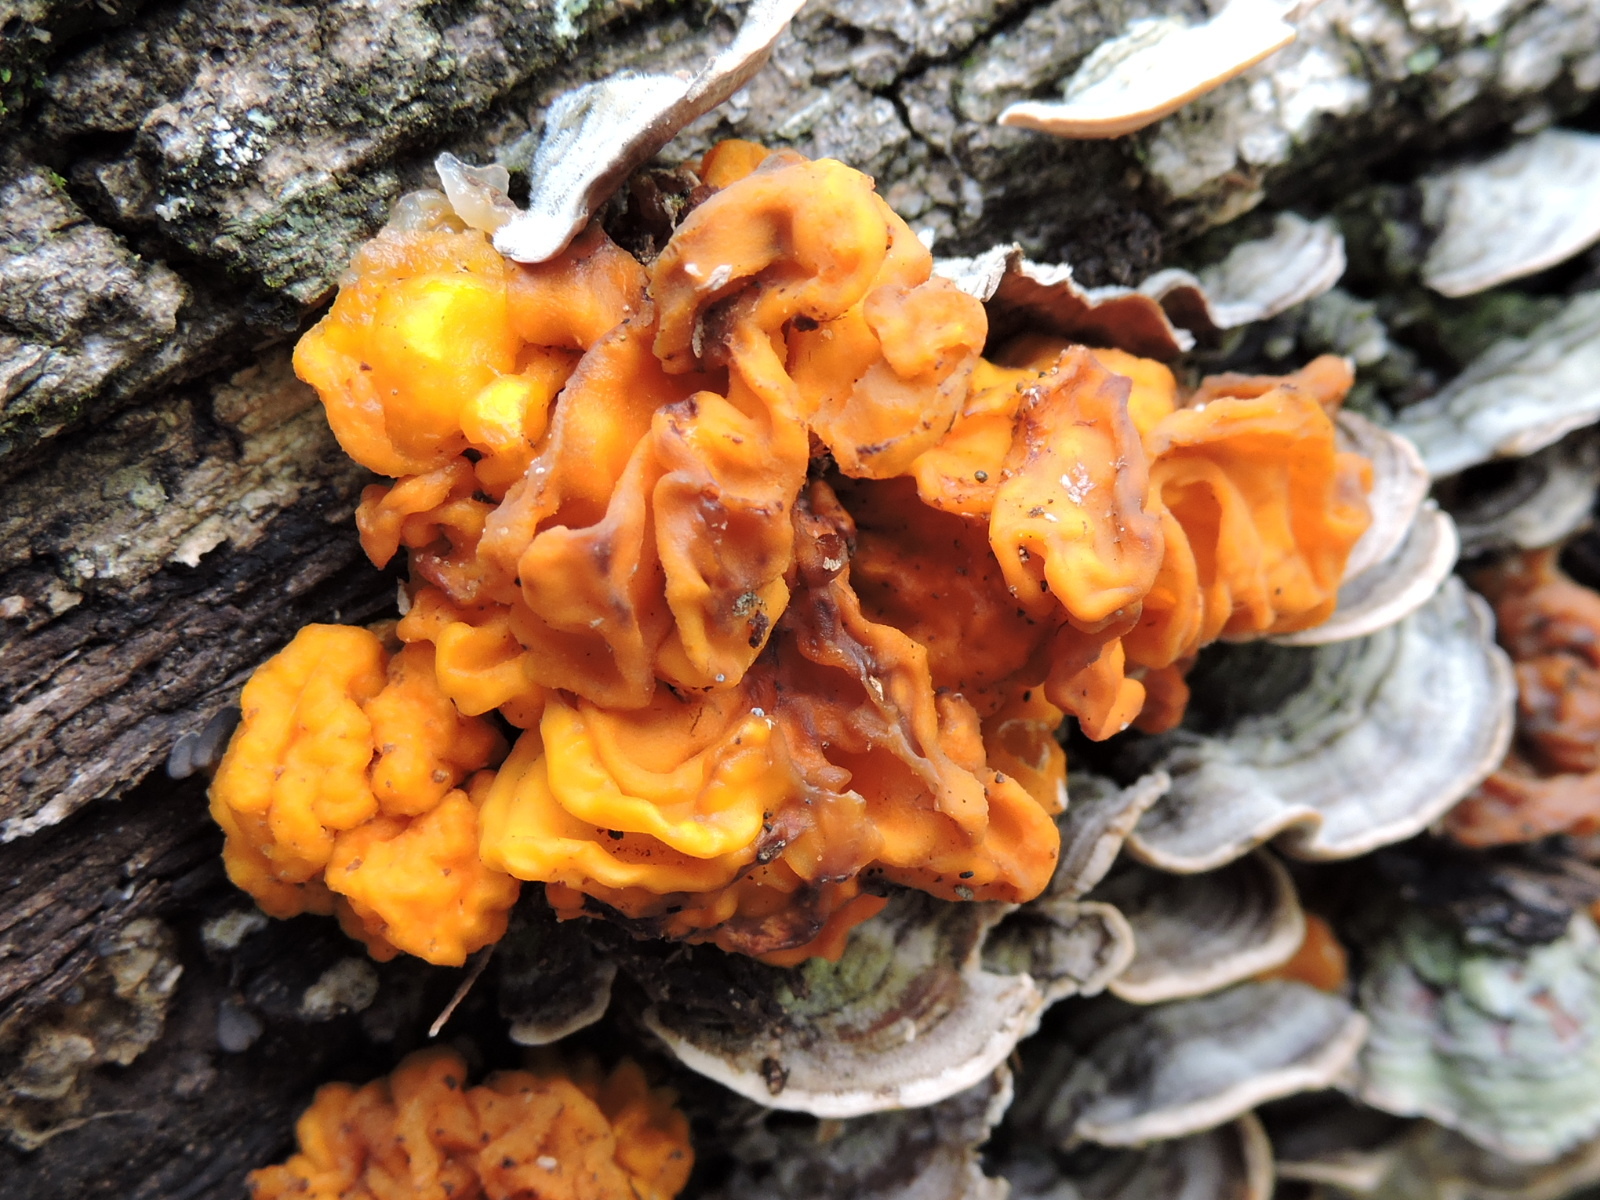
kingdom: Fungi
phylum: Basidiomycota
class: Tremellomycetes
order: Tremellales
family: Naemateliaceae
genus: Naematelia
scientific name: Naematelia aurantia
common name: Golden ear
